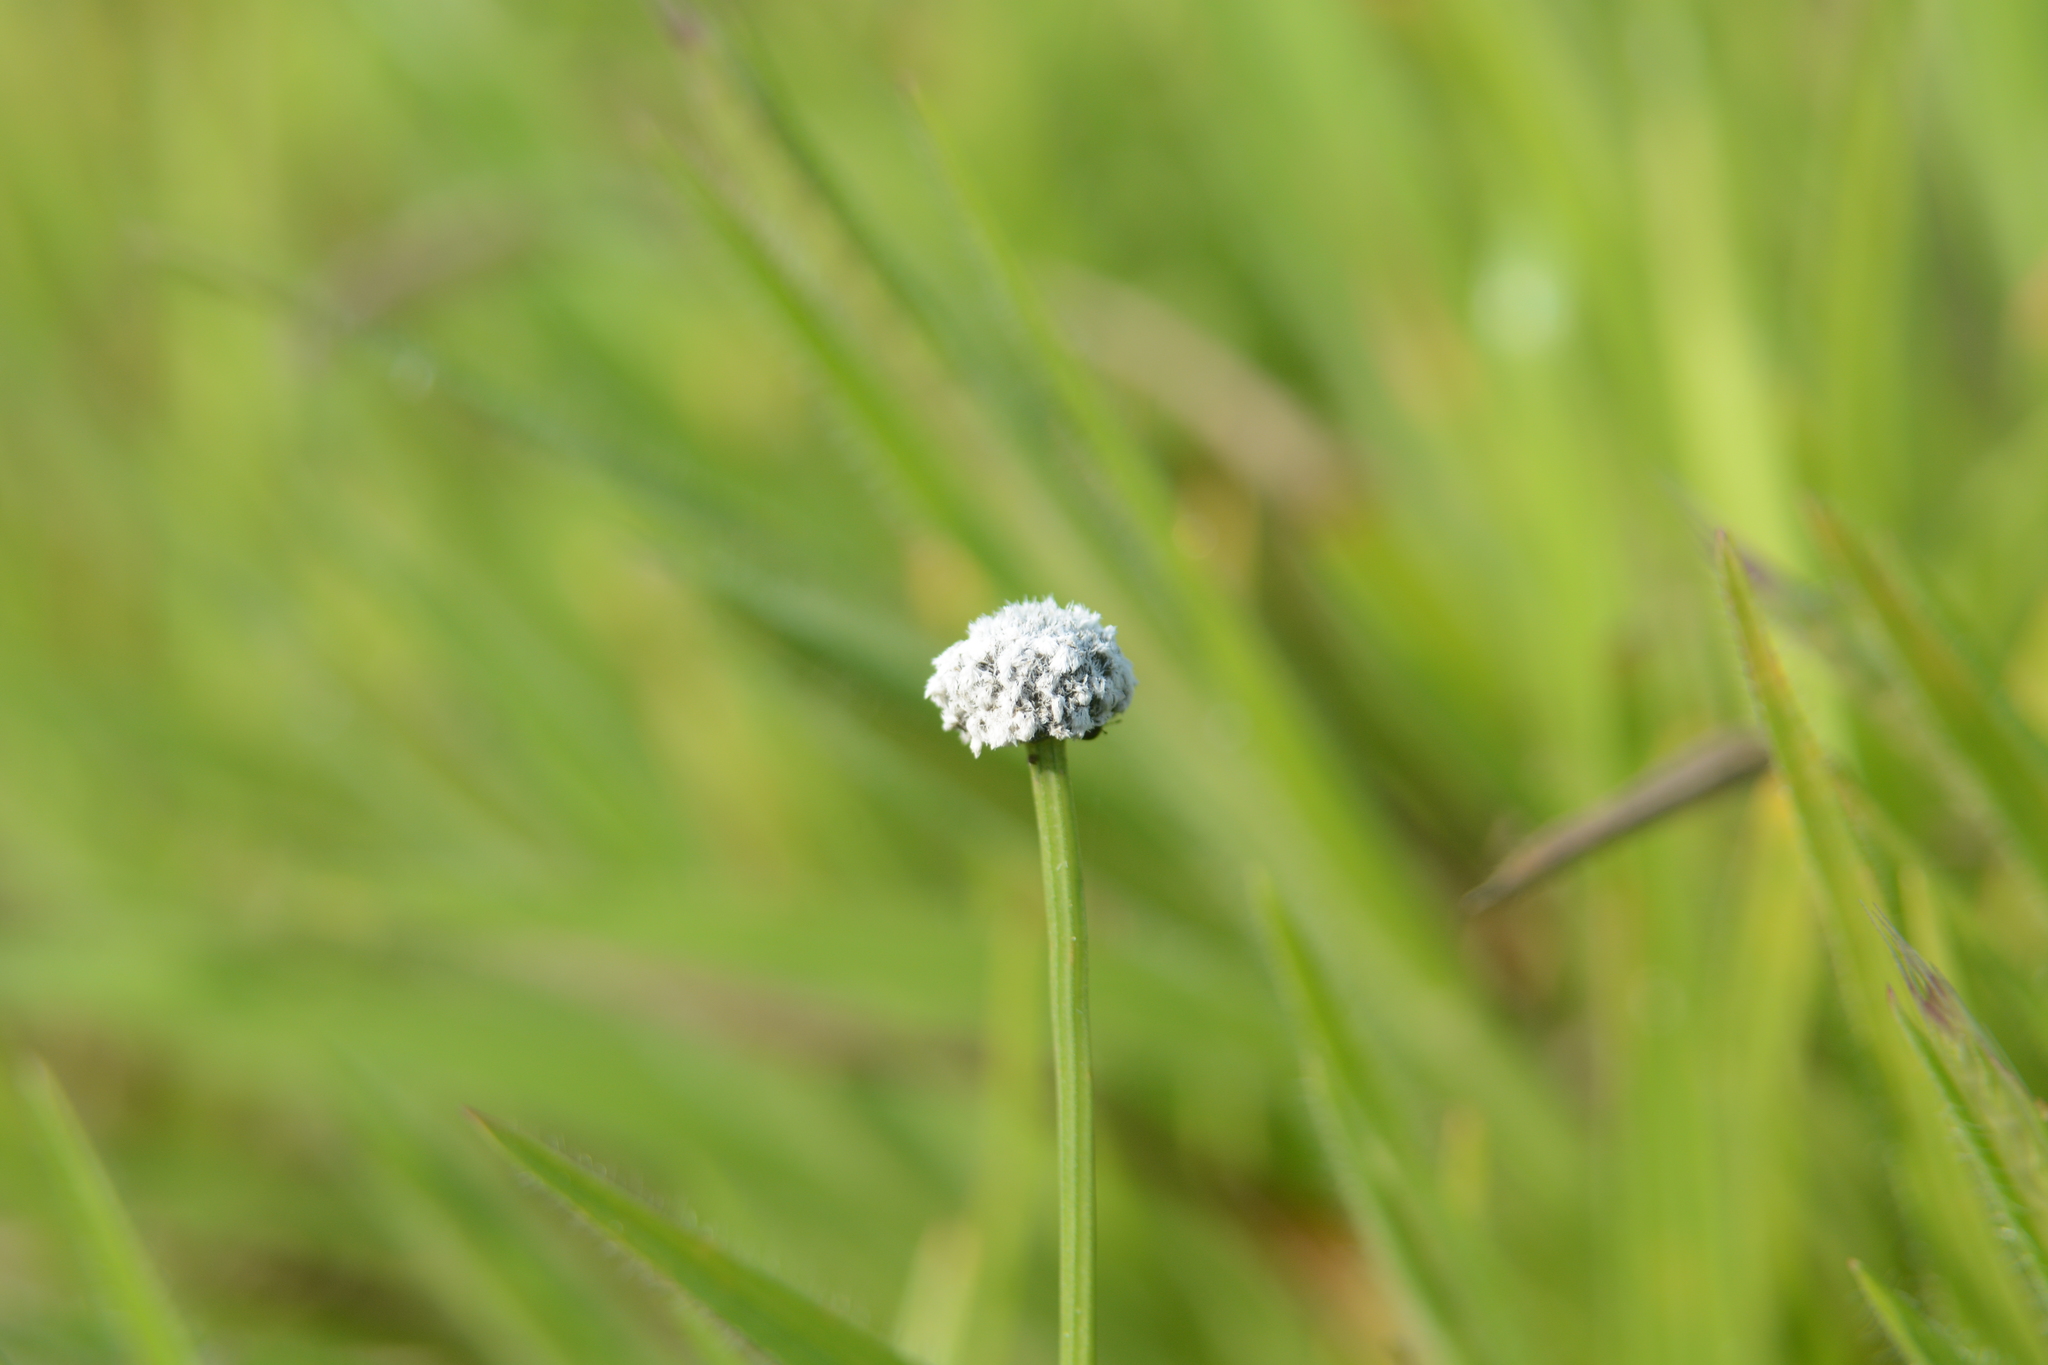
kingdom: Plantae
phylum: Tracheophyta
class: Liliopsida
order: Poales
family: Eriocaulaceae
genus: Eriocaulon
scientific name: Eriocaulon sedgwickii
